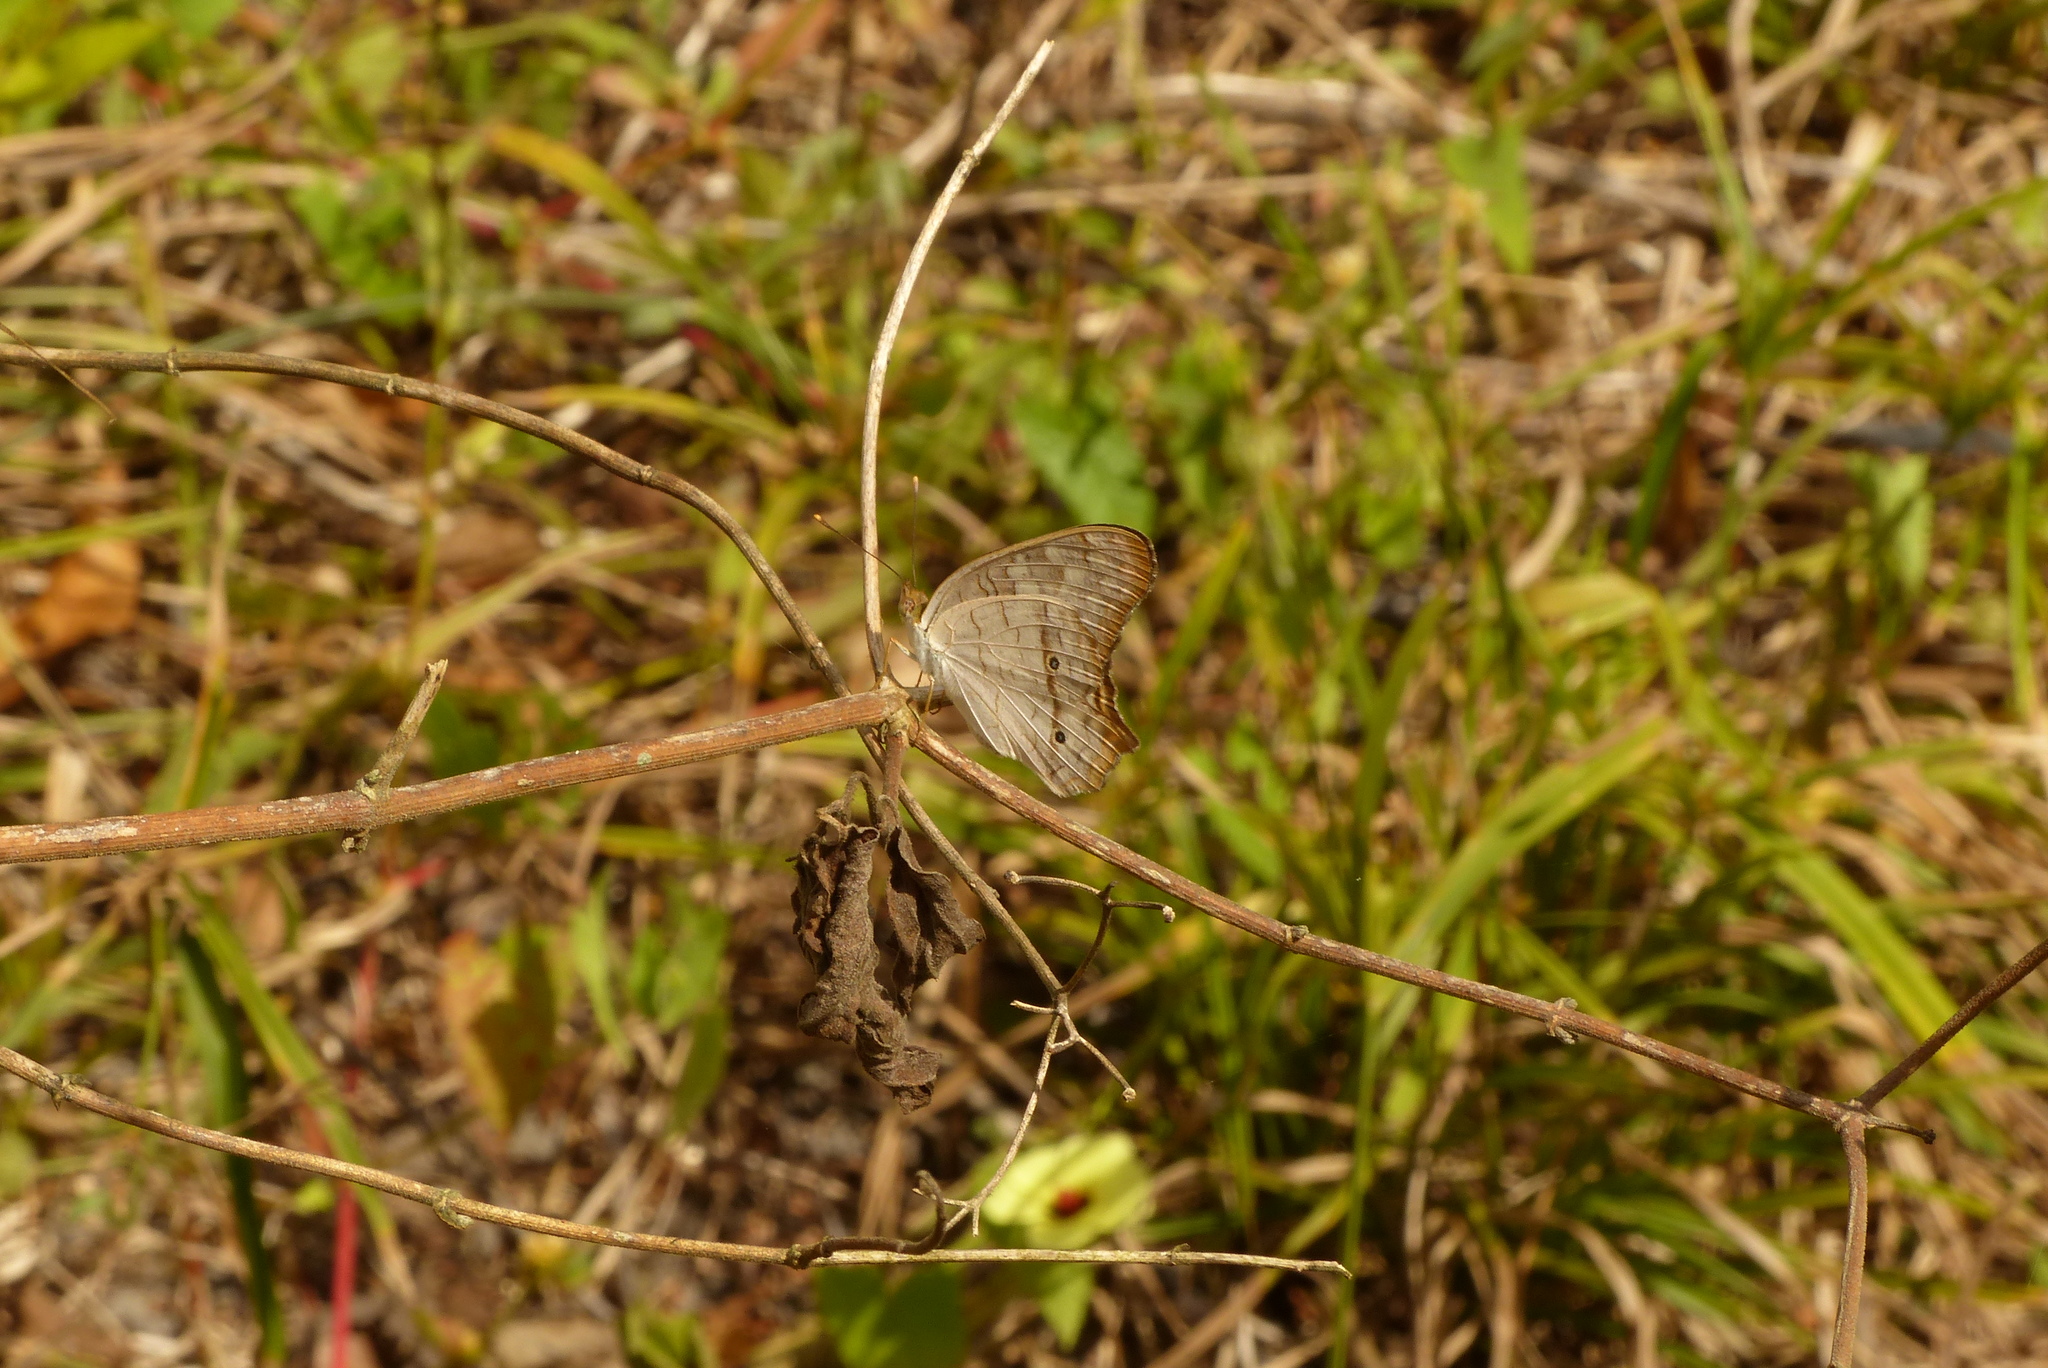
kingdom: Animalia
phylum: Arthropoda
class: Insecta
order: Lepidoptera
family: Nymphalidae
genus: Anartia
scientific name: Anartia jatrophae
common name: White peacock
